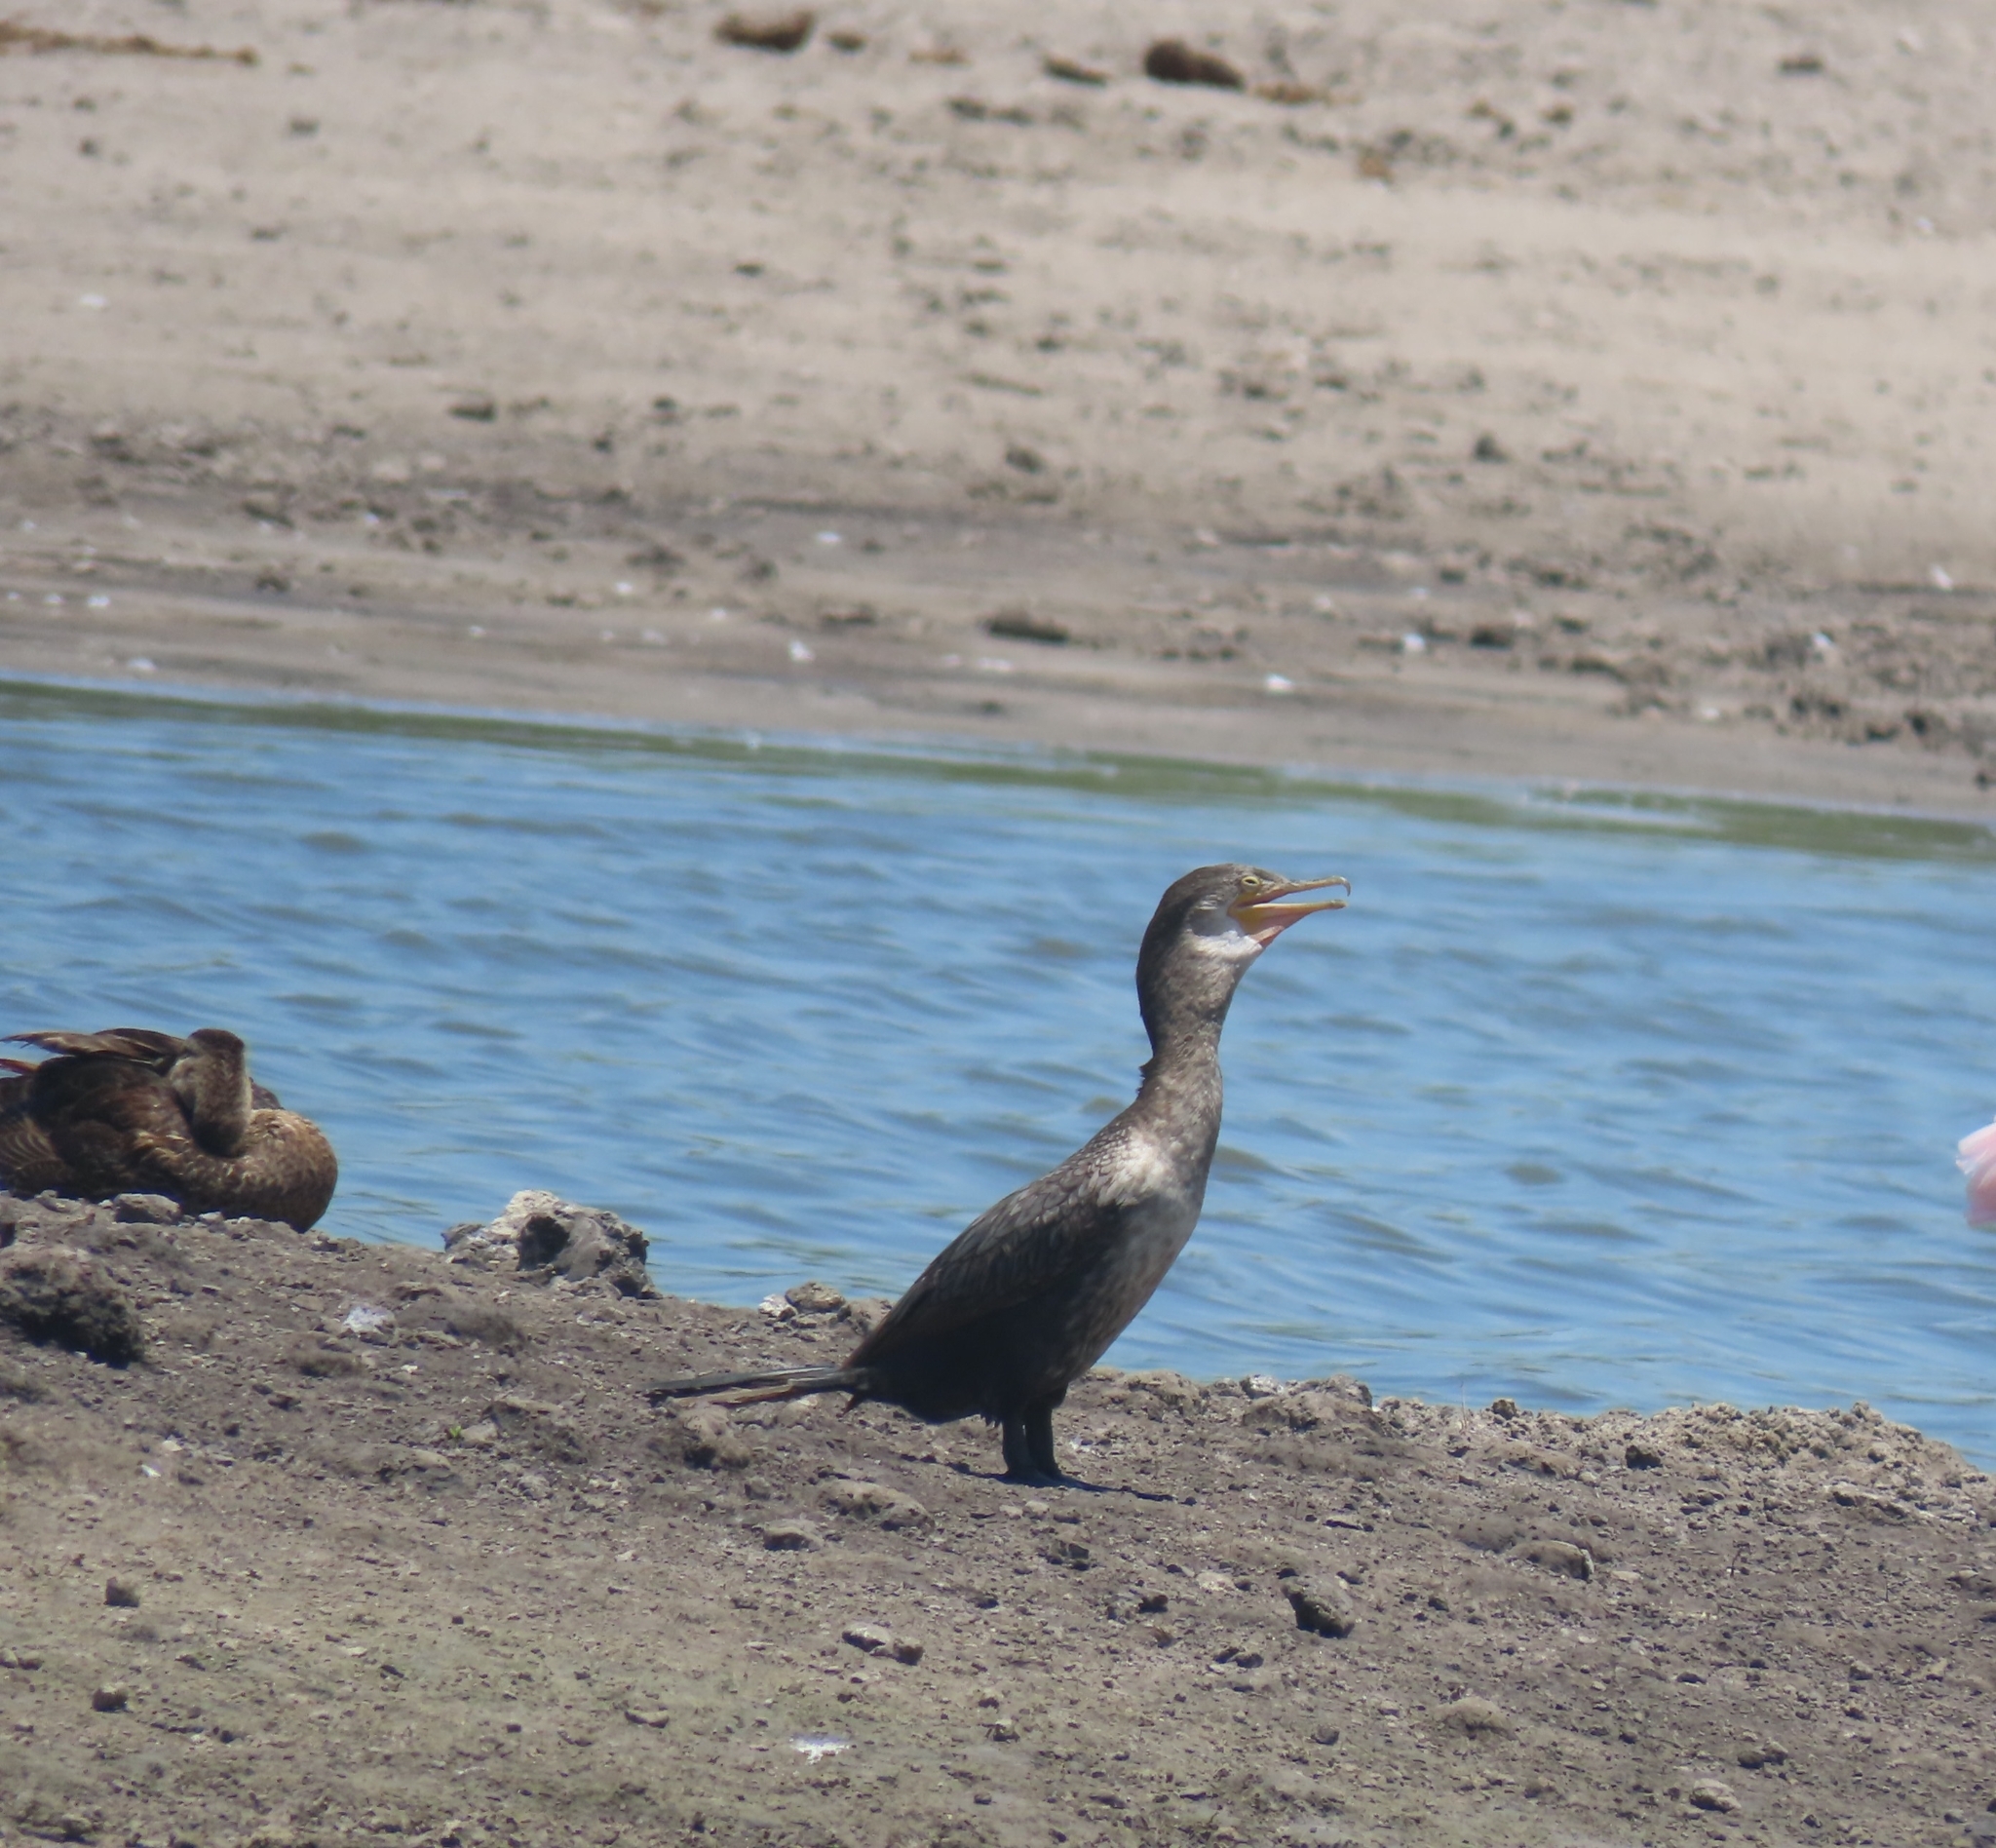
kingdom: Animalia
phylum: Chordata
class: Aves
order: Suliformes
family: Phalacrocoracidae
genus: Phalacrocorax
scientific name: Phalacrocorax brasilianus
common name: Neotropic cormorant
